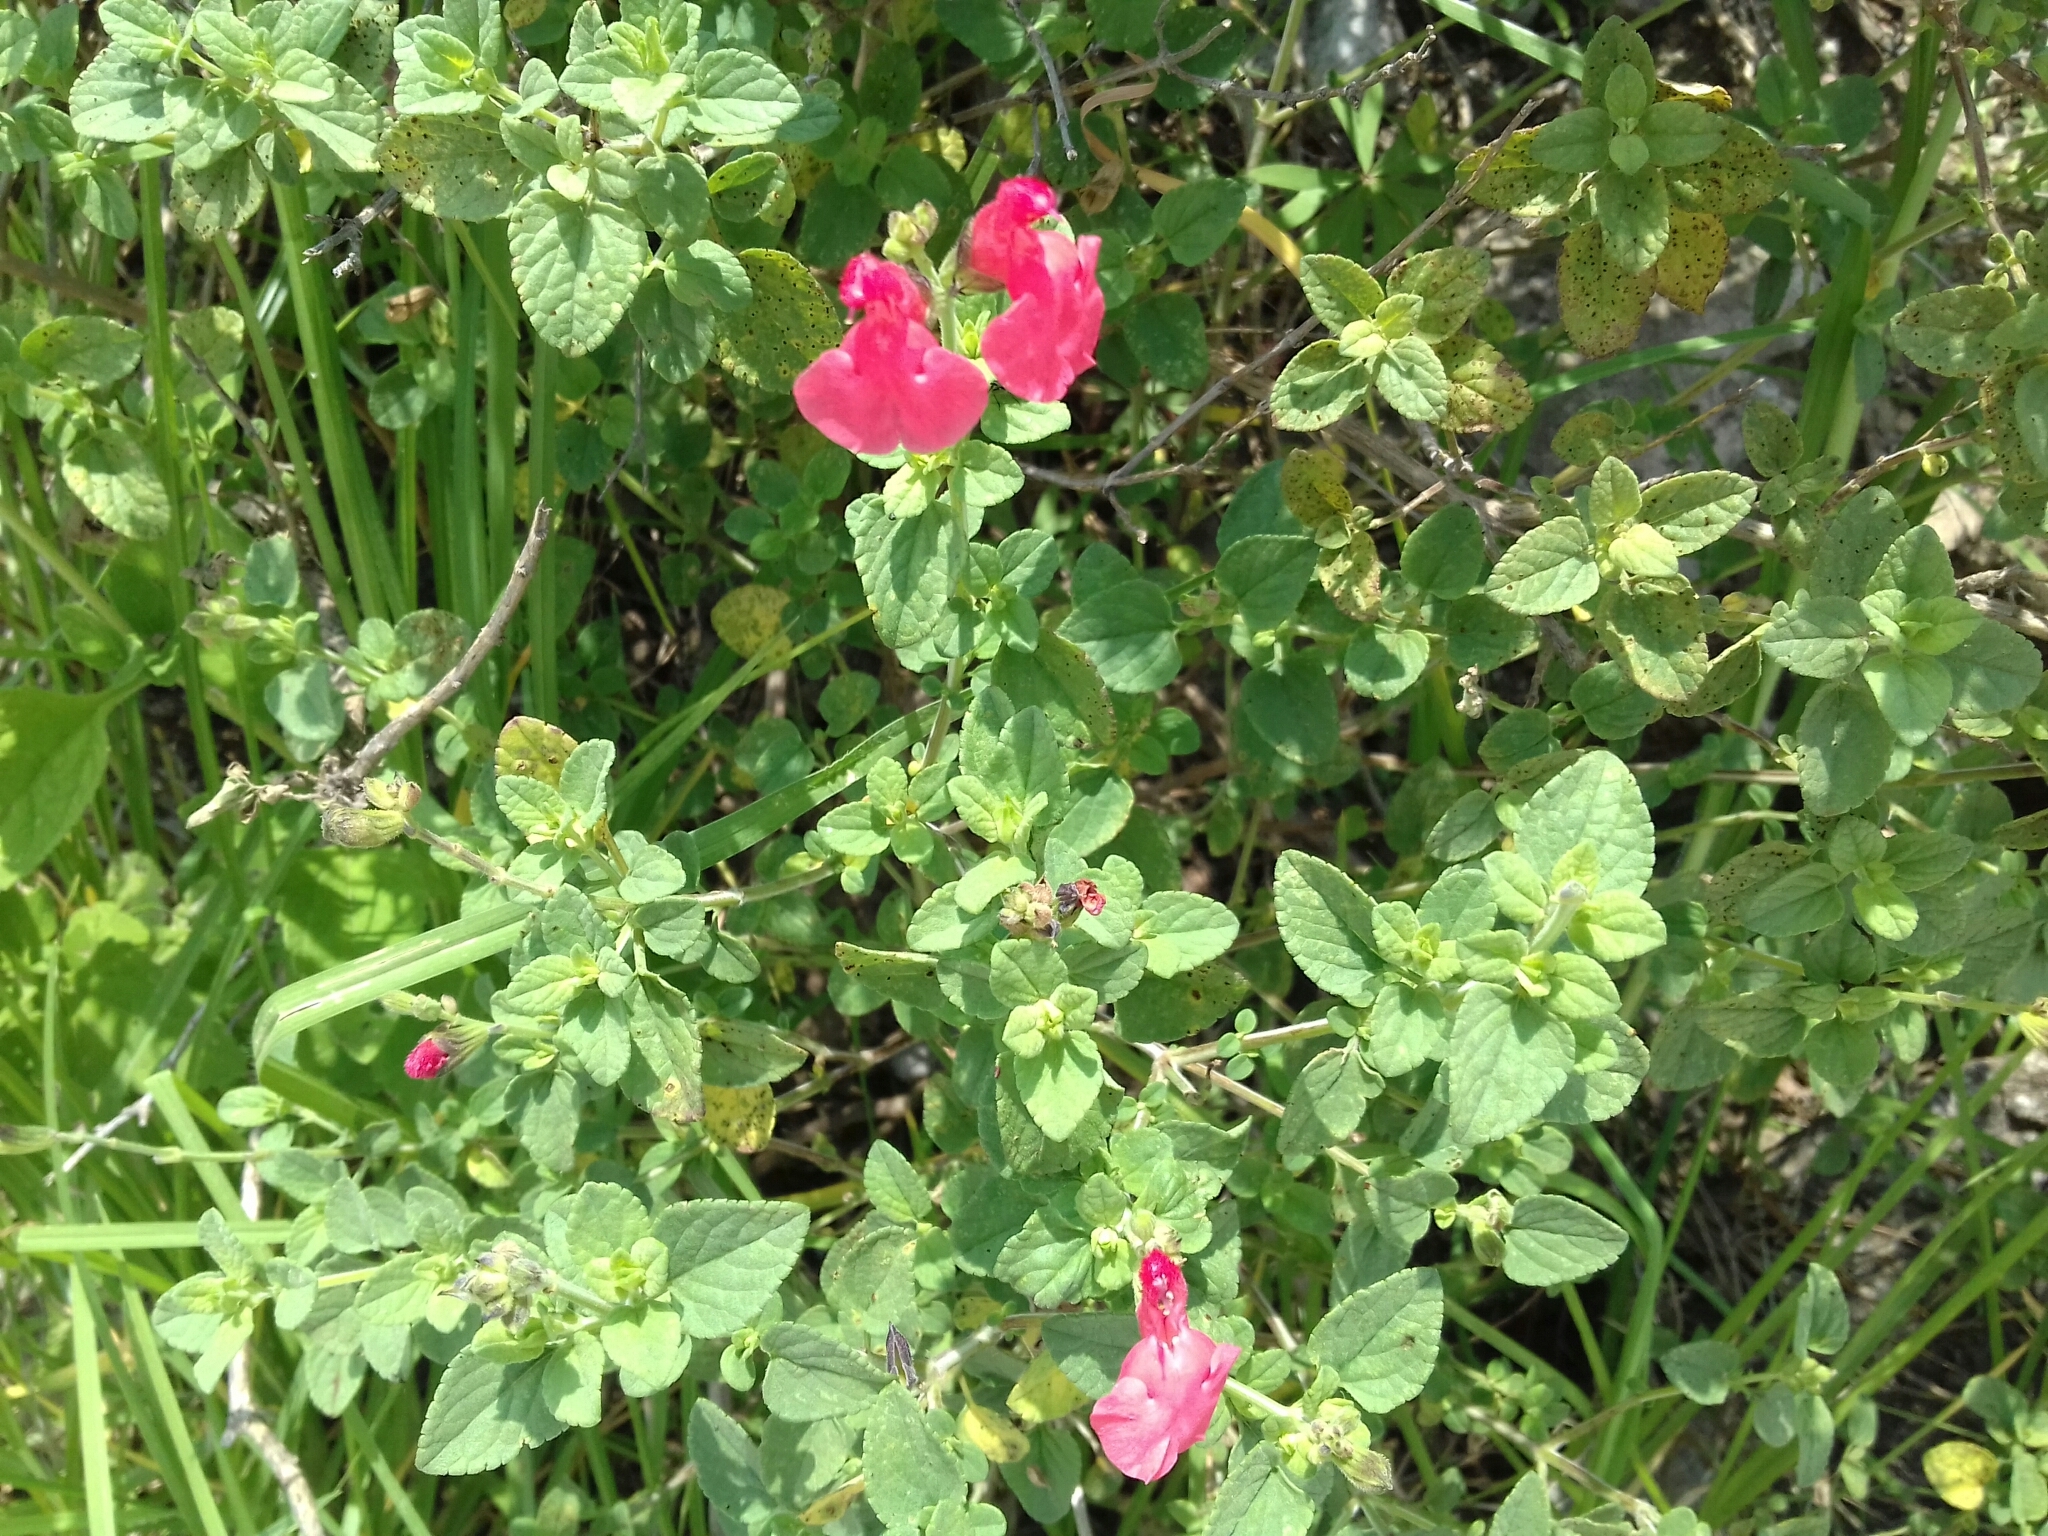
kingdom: Plantae
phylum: Tracheophyta
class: Magnoliopsida
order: Lamiales
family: Lamiaceae
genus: Salvia
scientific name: Salvia microphylla
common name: Baby sage
